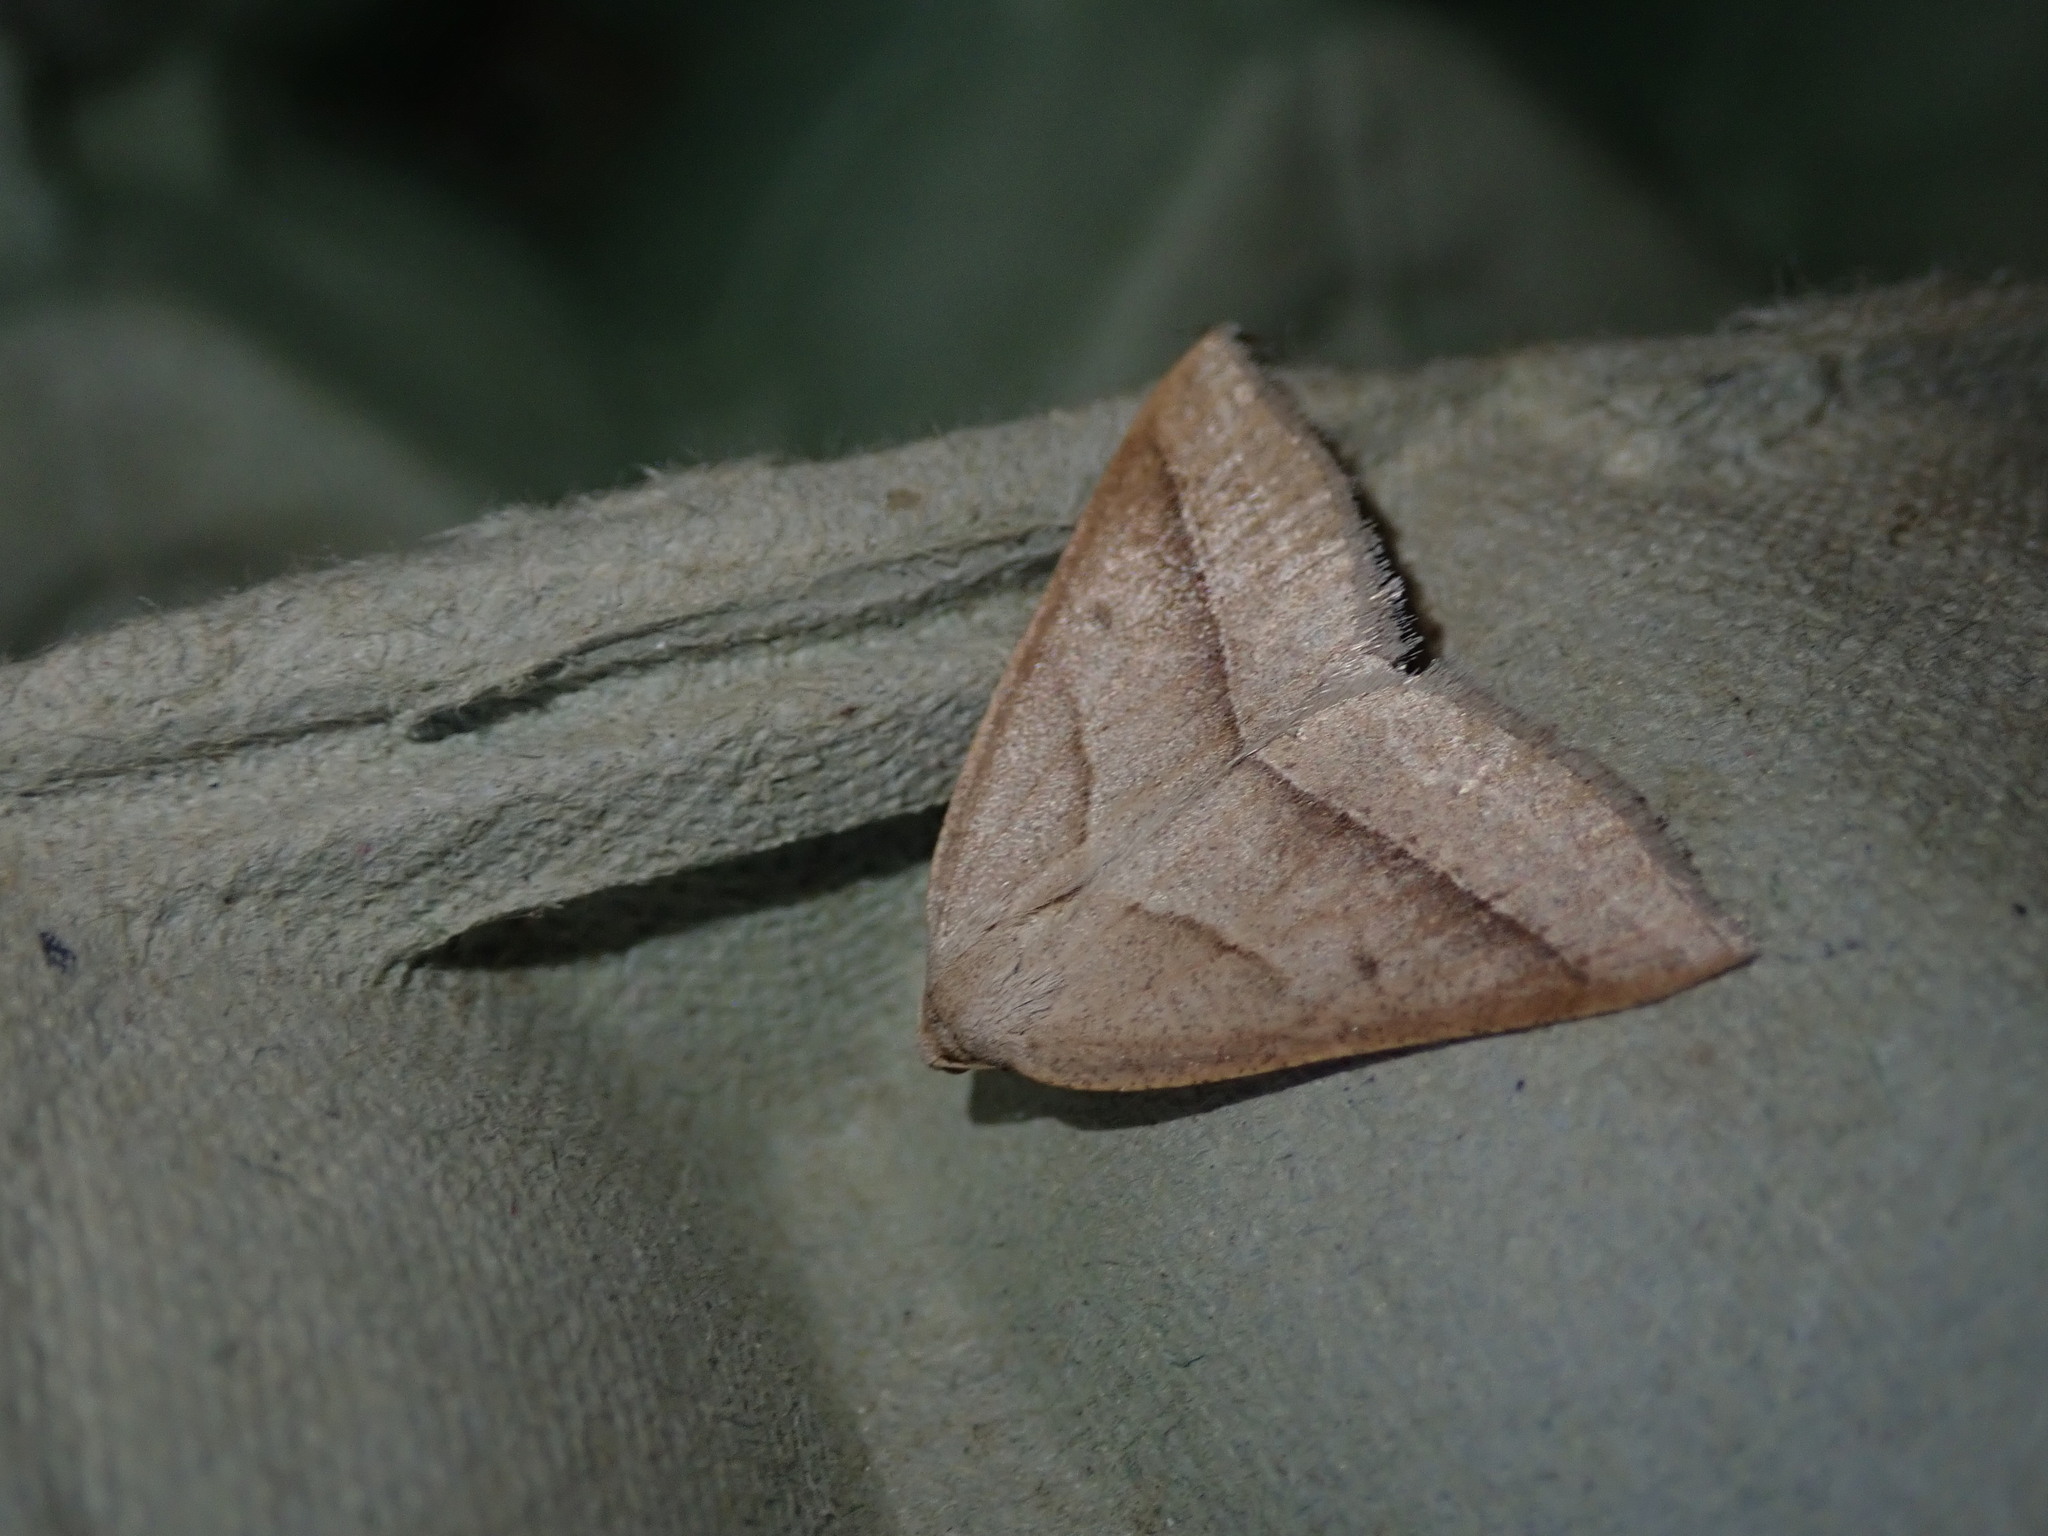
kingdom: Animalia
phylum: Arthropoda
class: Insecta
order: Lepidoptera
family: Pterophoridae
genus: Pterophorus
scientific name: Pterophorus Petrophora chlorosata
